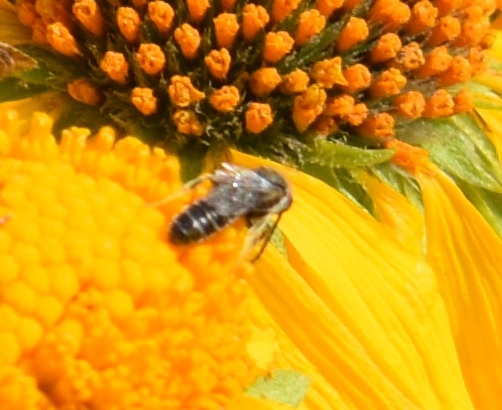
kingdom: Animalia
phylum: Arthropoda
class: Insecta
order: Hymenoptera
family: Halictidae
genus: Halictus
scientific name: Halictus virgatellus
